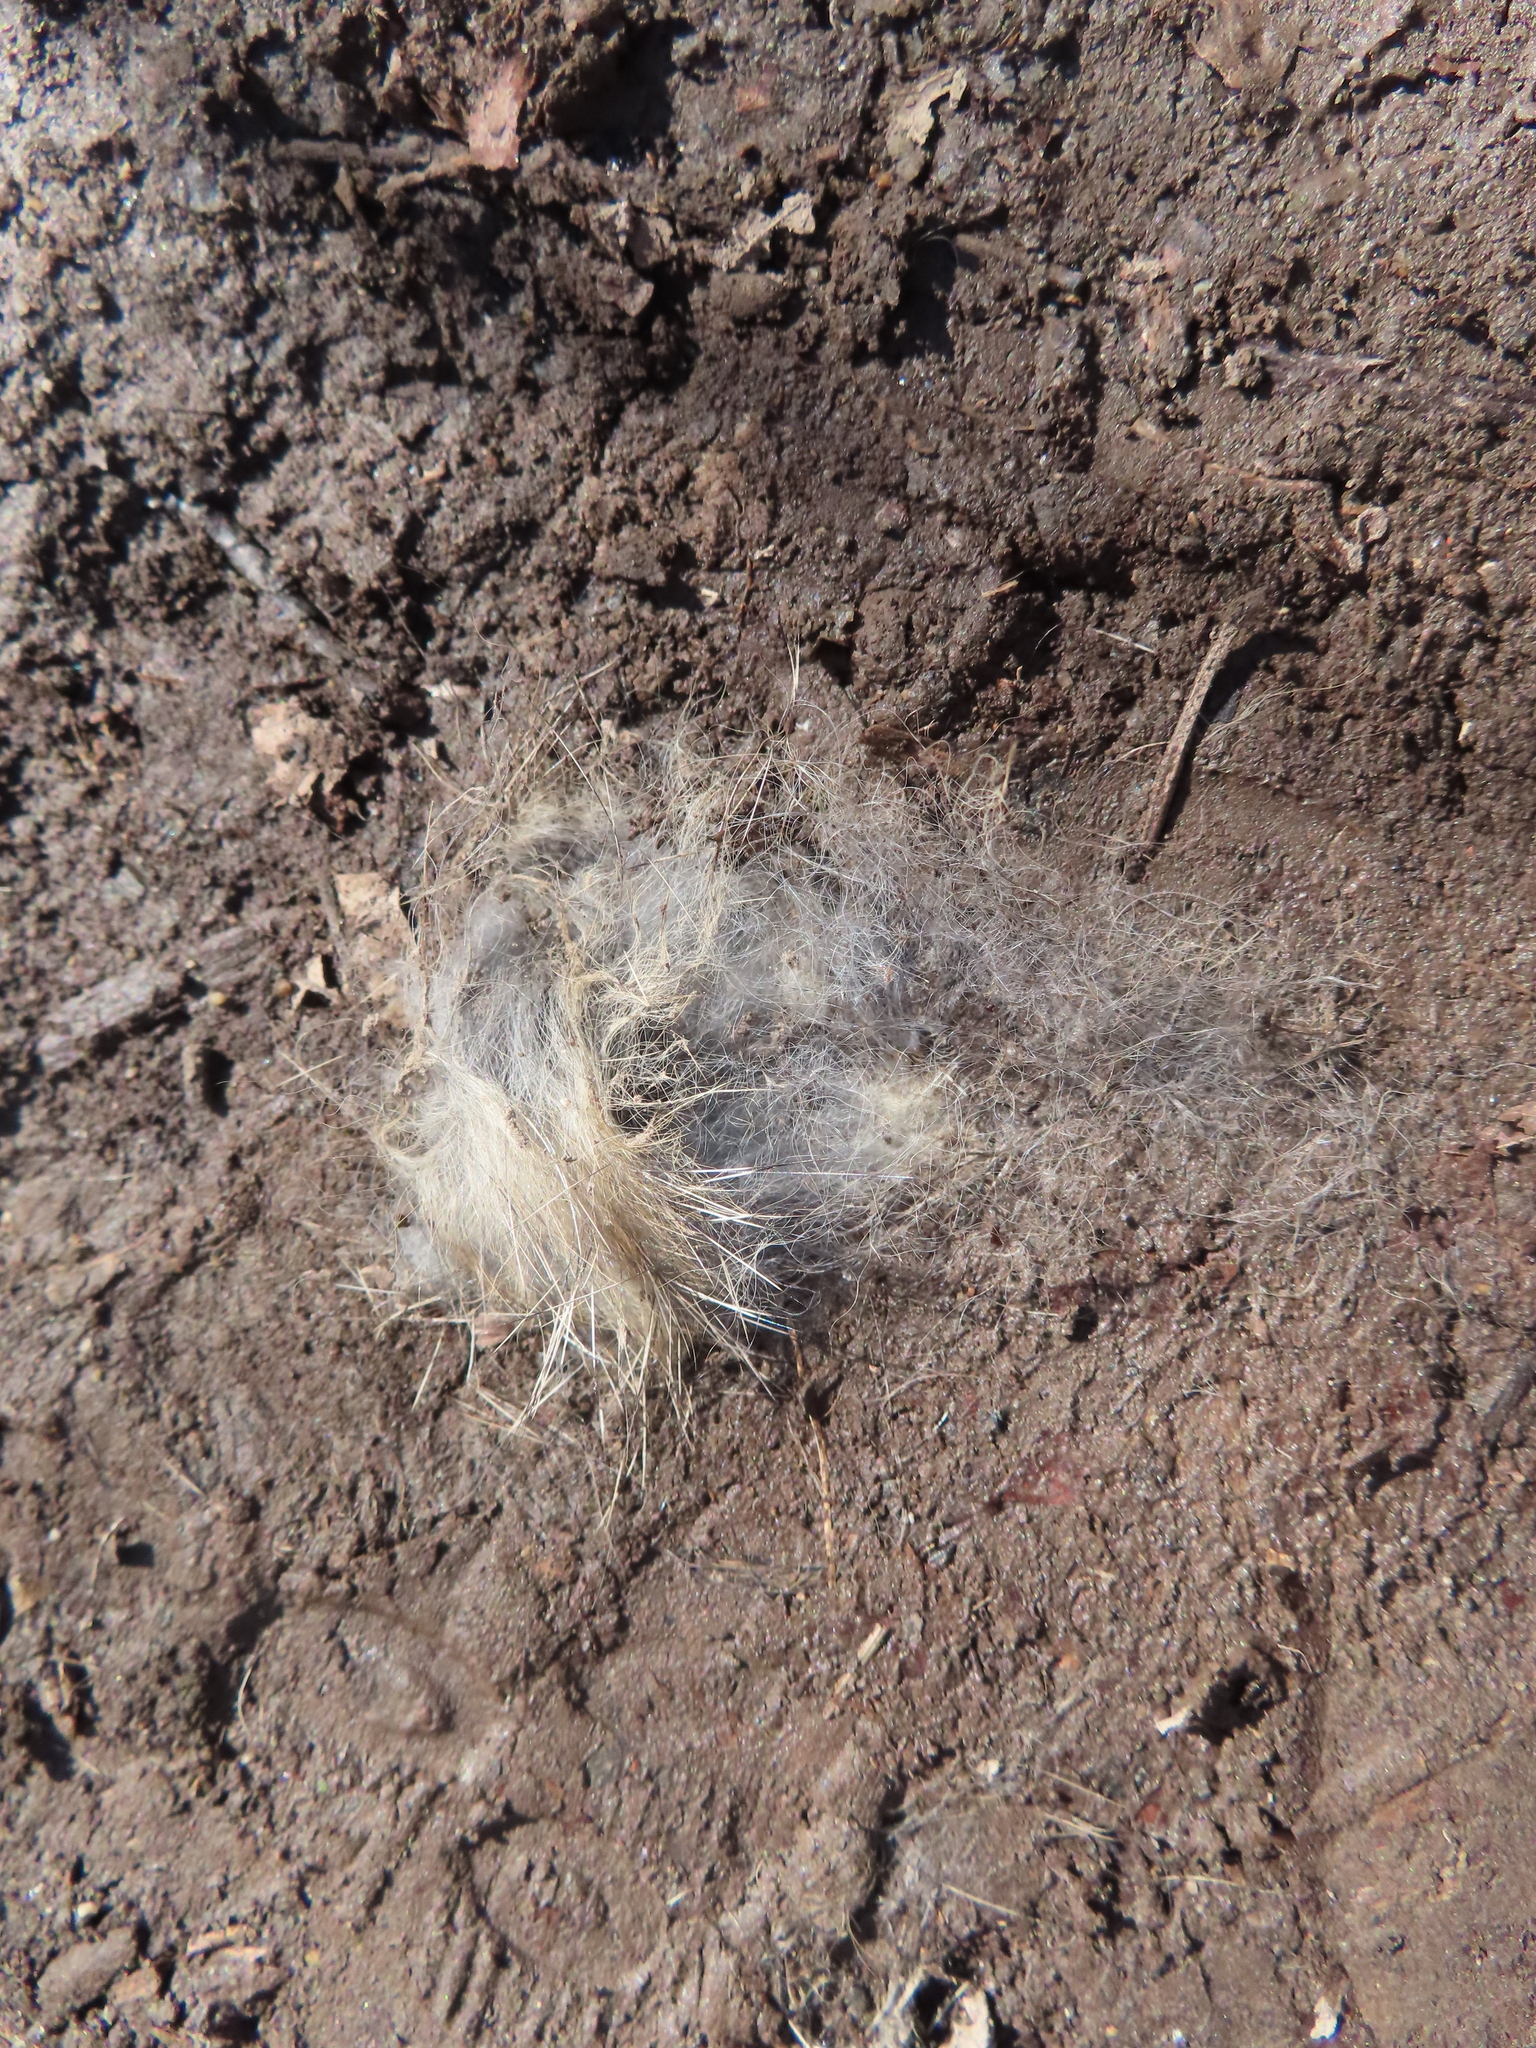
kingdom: Animalia
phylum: Chordata
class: Mammalia
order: Lagomorpha
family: Leporidae
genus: Sylvilagus
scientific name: Sylvilagus floridanus
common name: Eastern cottontail
